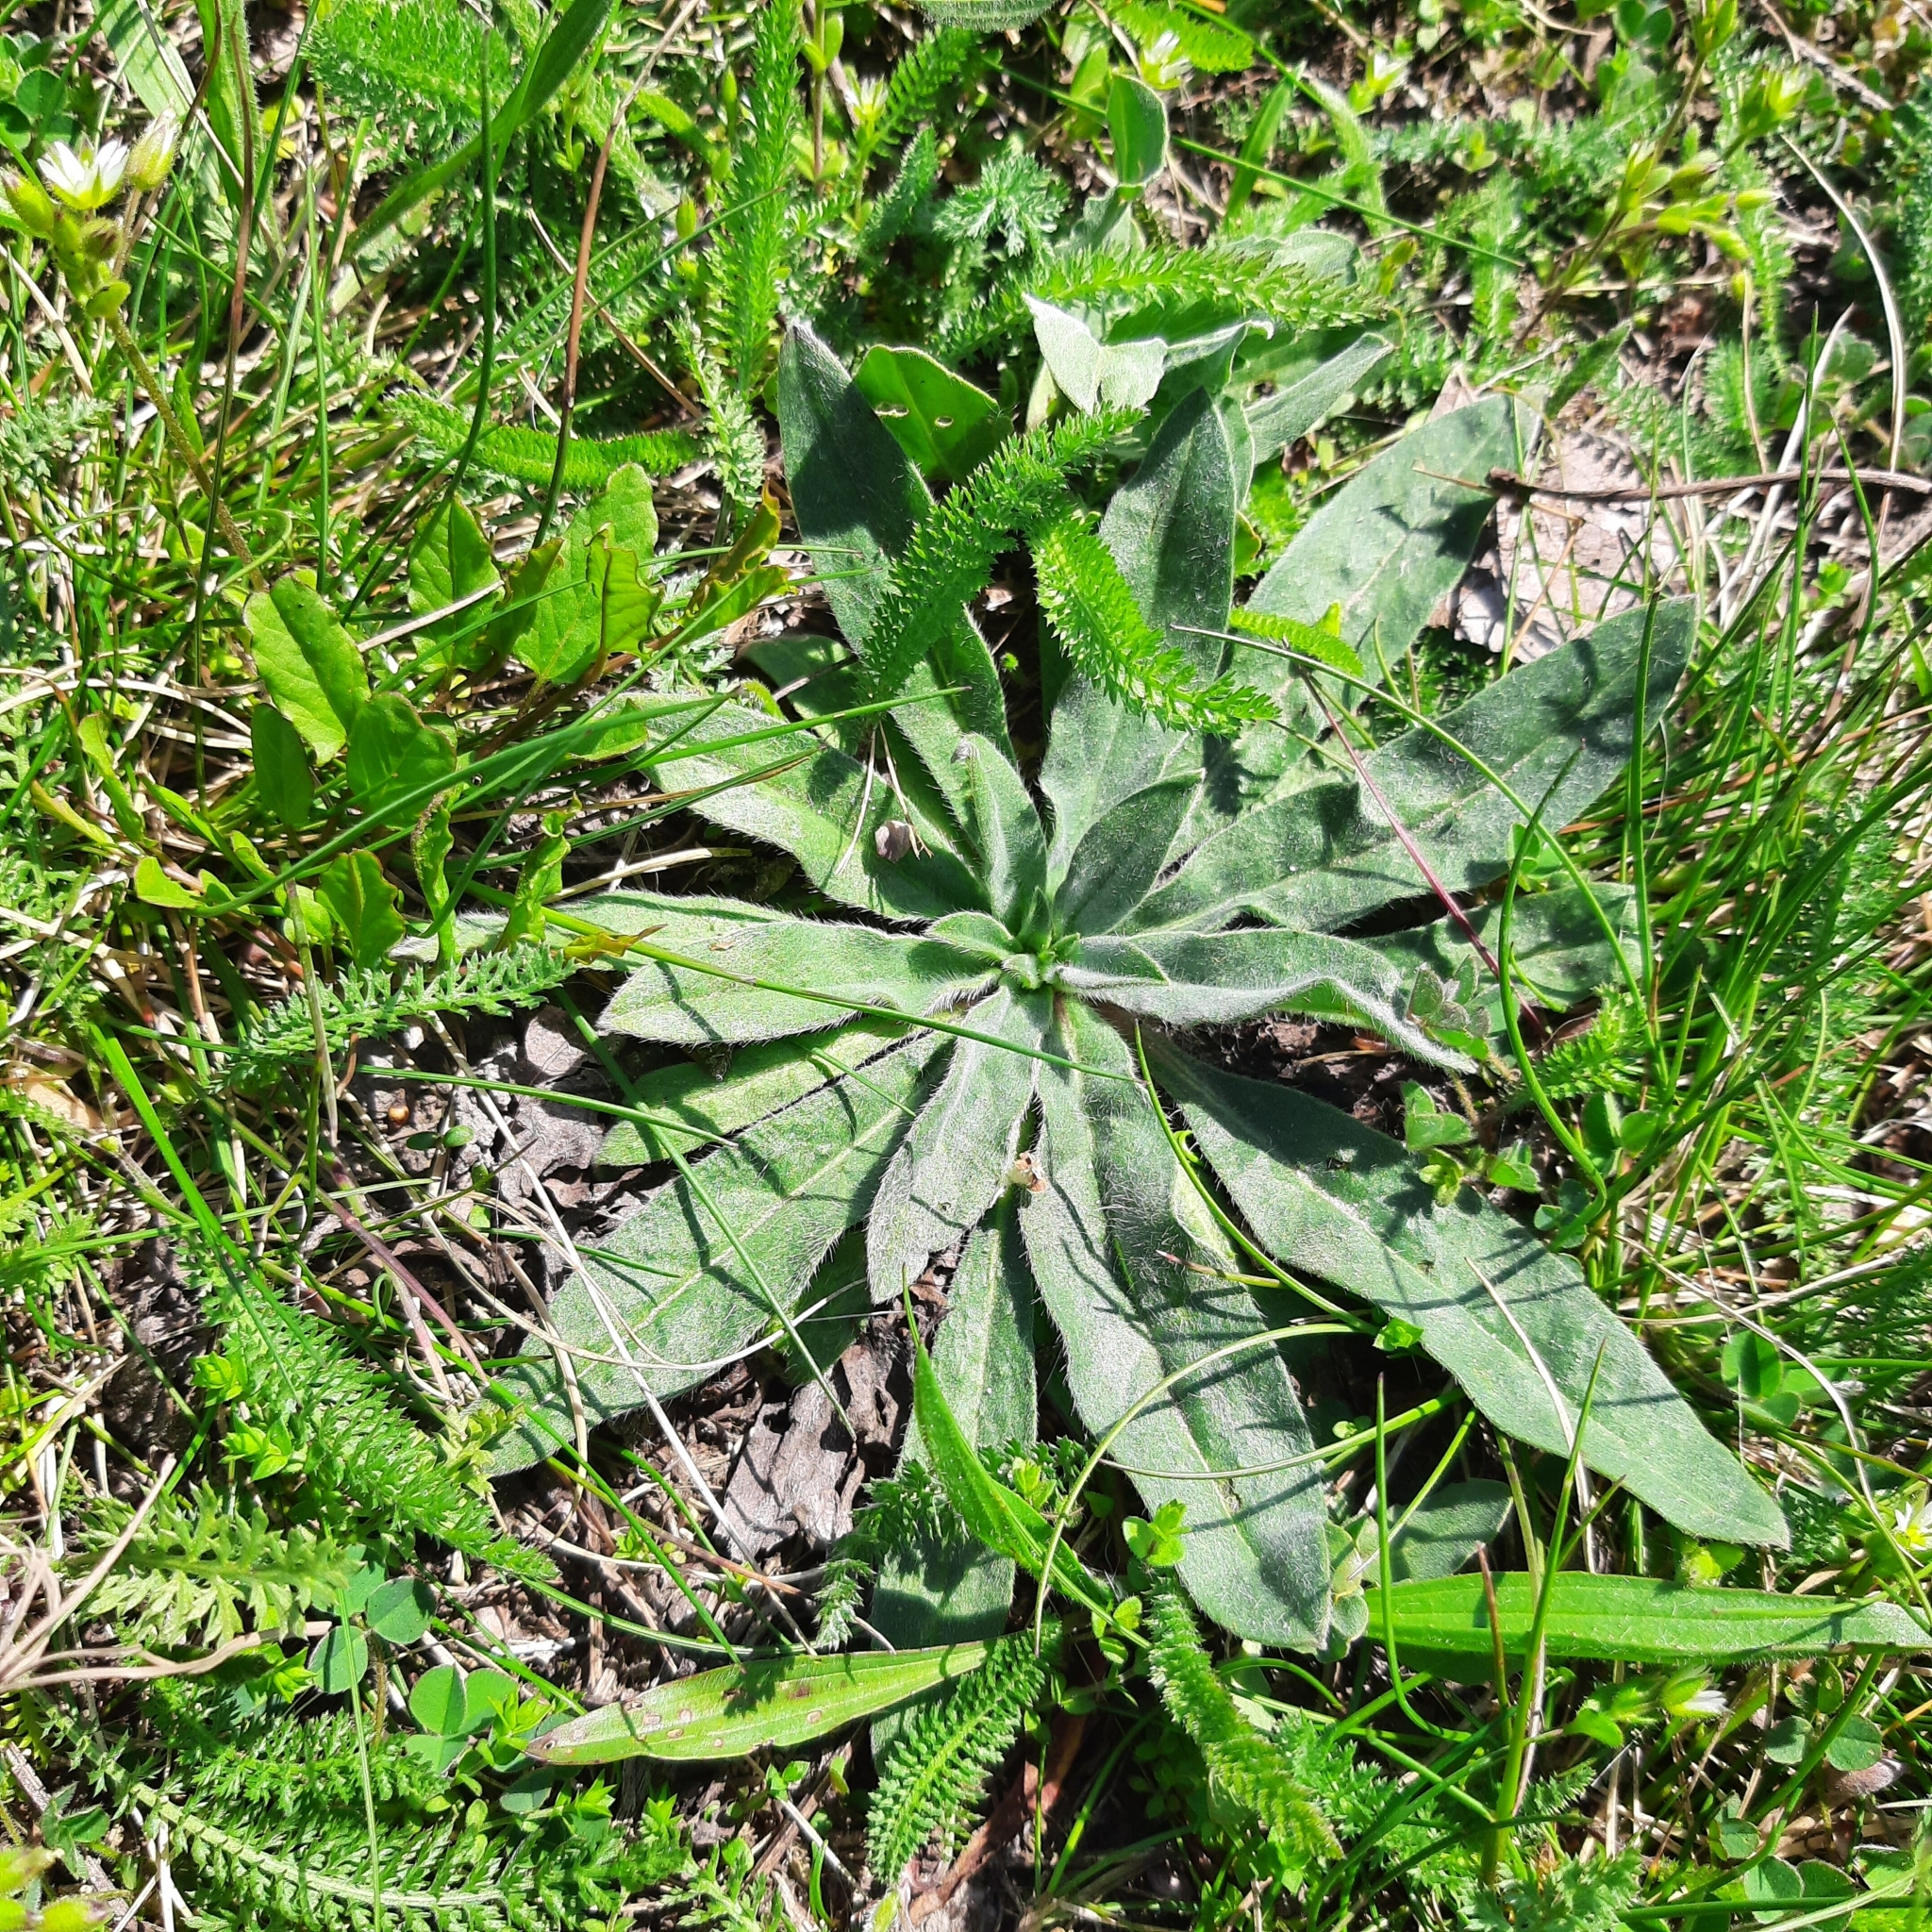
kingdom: Plantae
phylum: Tracheophyta
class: Magnoliopsida
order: Boraginales
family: Boraginaceae
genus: Echium
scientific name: Echium vulgare
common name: Common viper's bugloss
